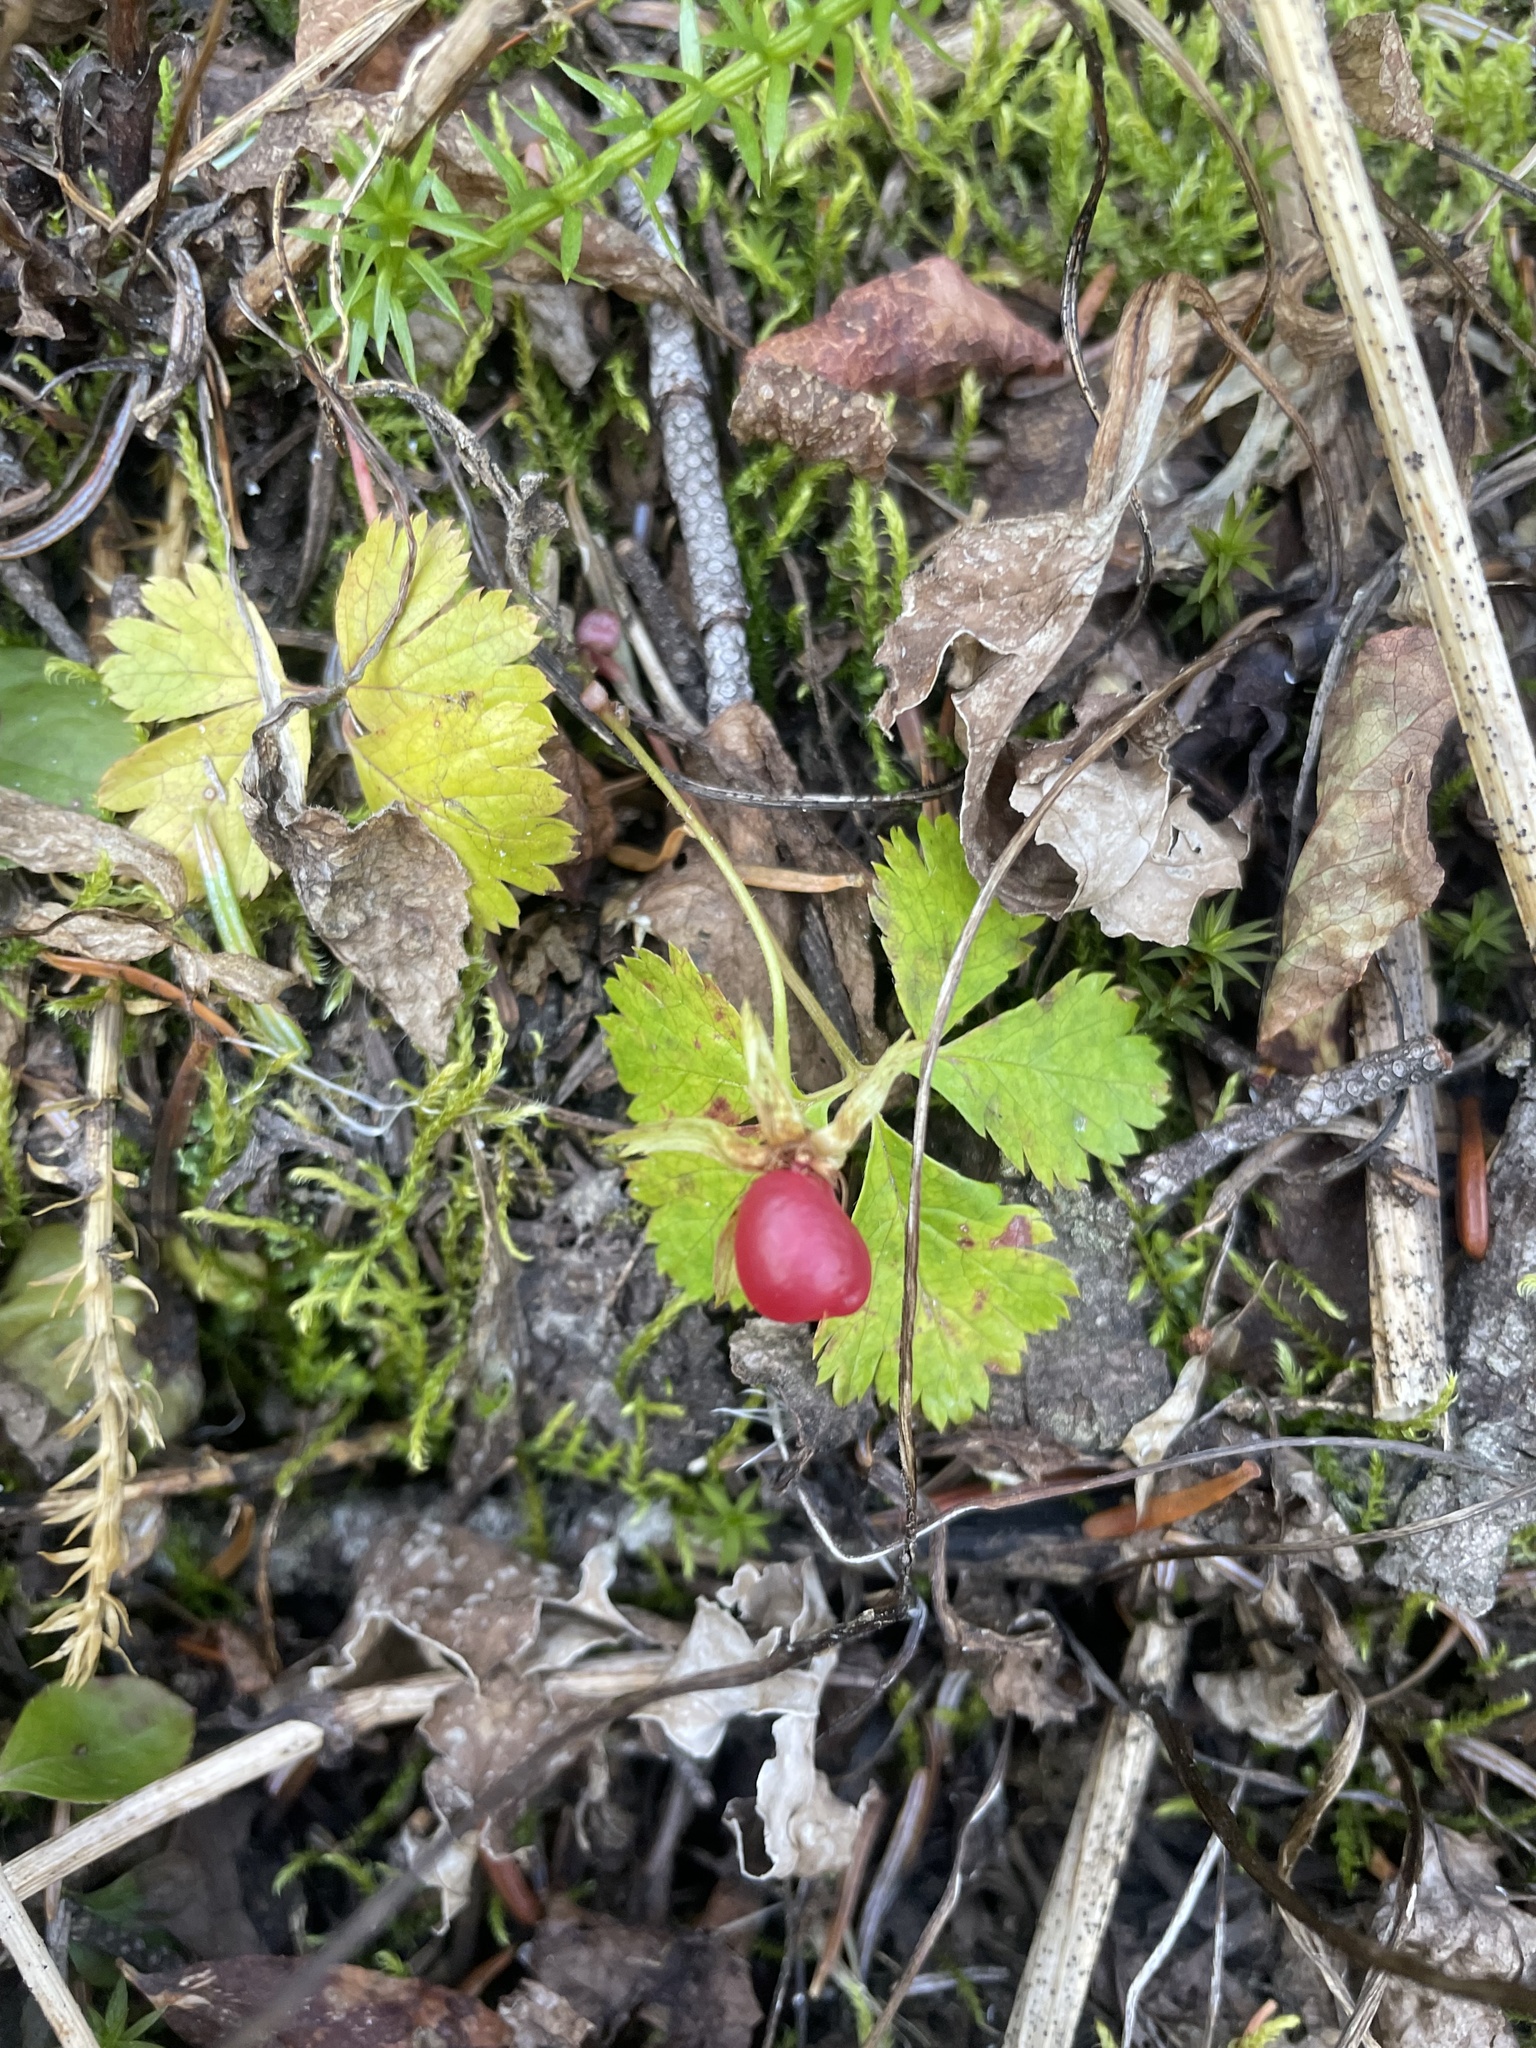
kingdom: Plantae
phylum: Tracheophyta
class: Magnoliopsida
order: Rosales
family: Rosaceae
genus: Rubus
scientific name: Rubus pedatus
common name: Creeping raspberry
